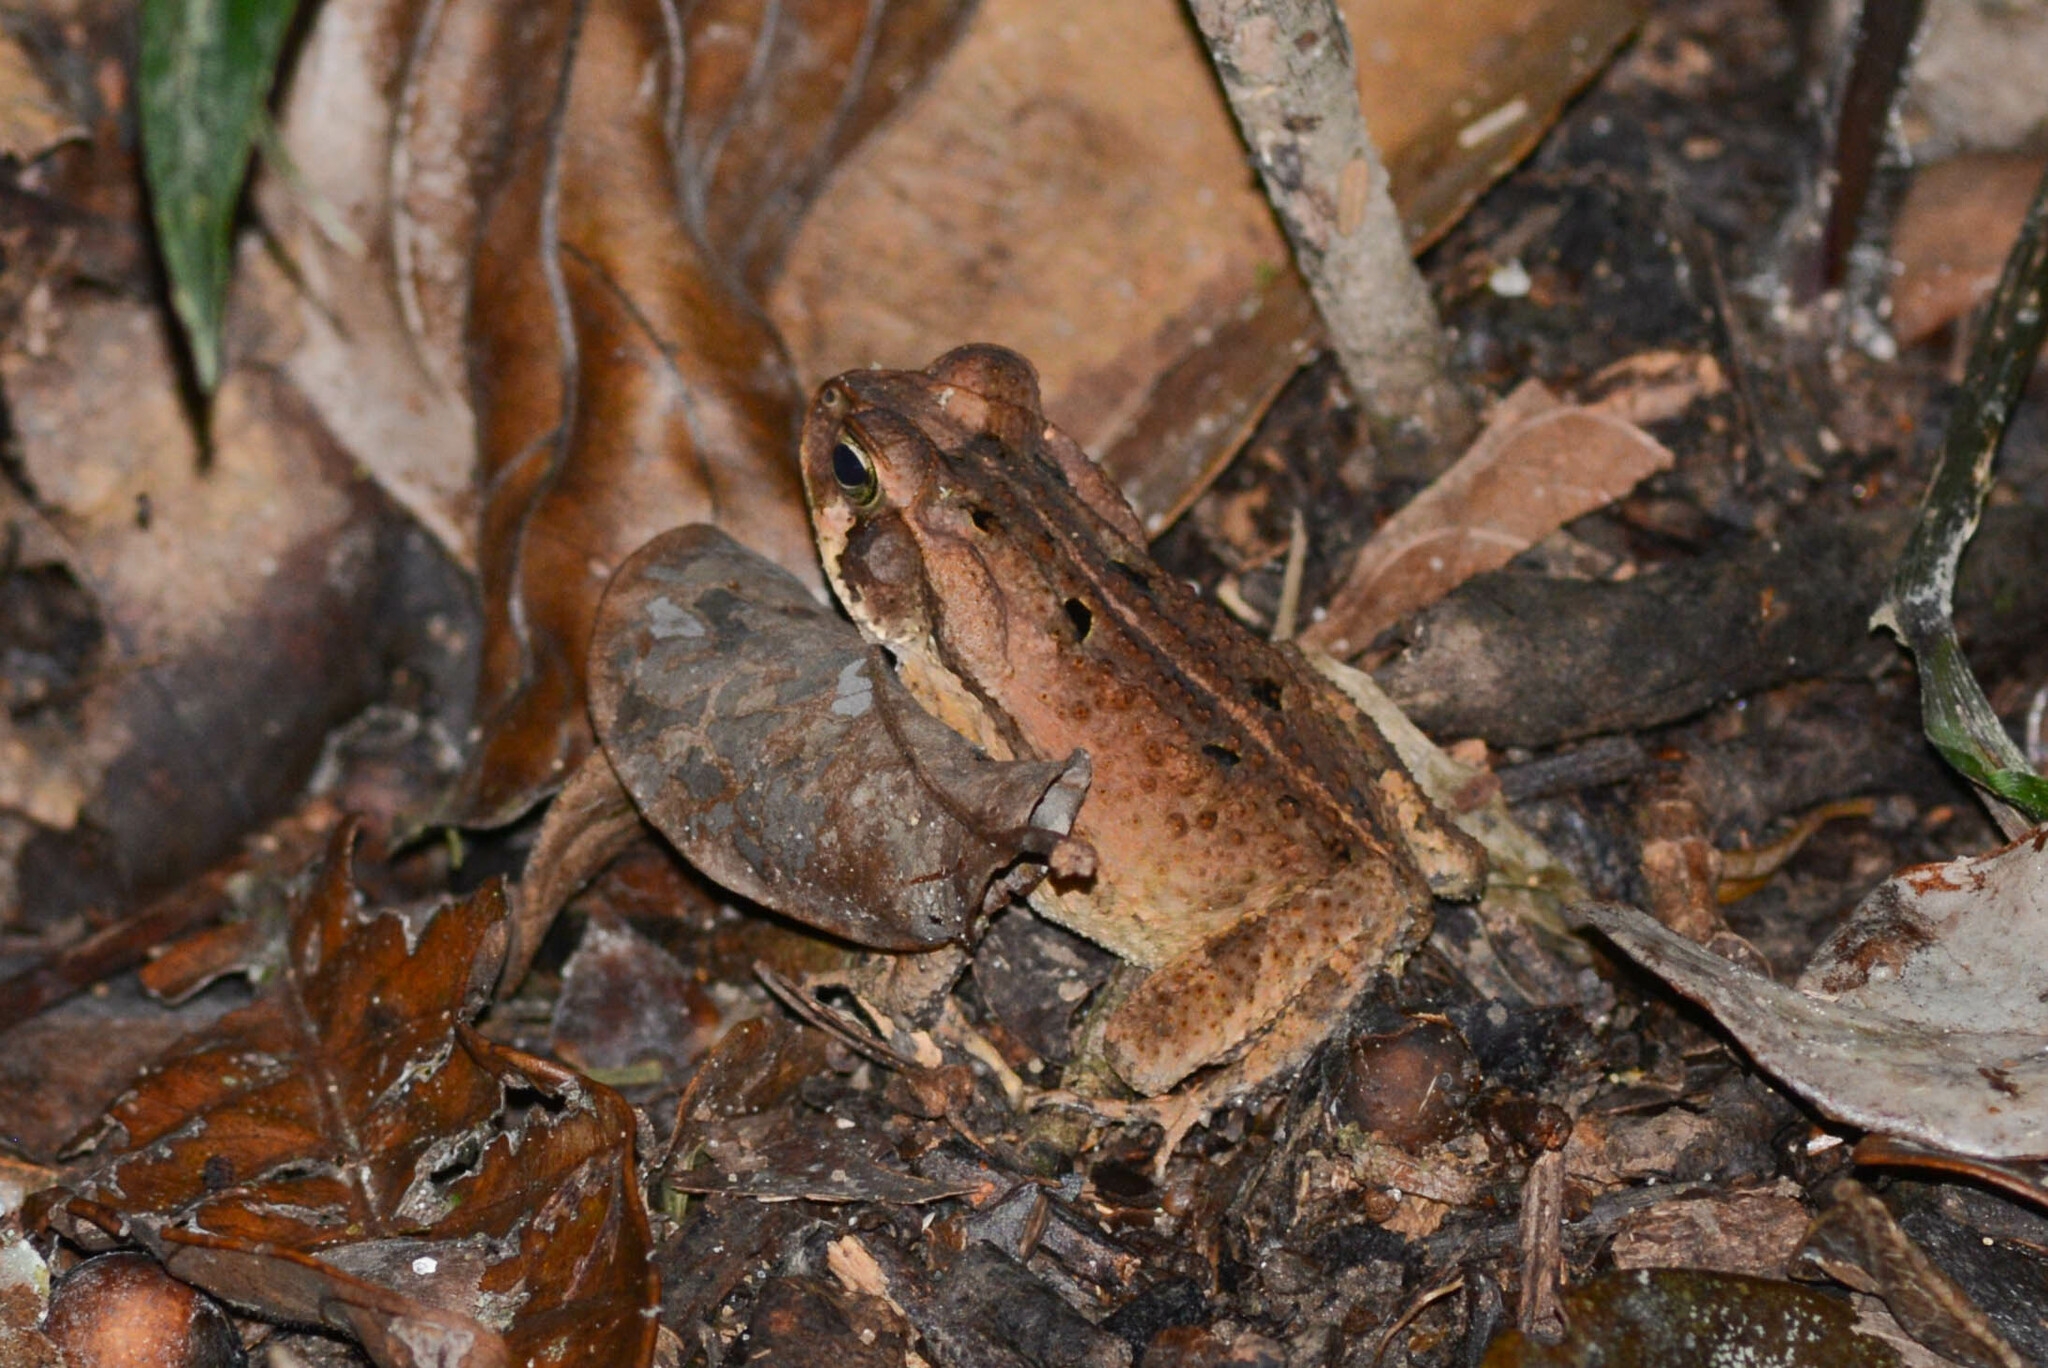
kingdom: Animalia
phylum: Chordata
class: Amphibia
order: Anura
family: Bufonidae
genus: Rhinella
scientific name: Rhinella crucifer
